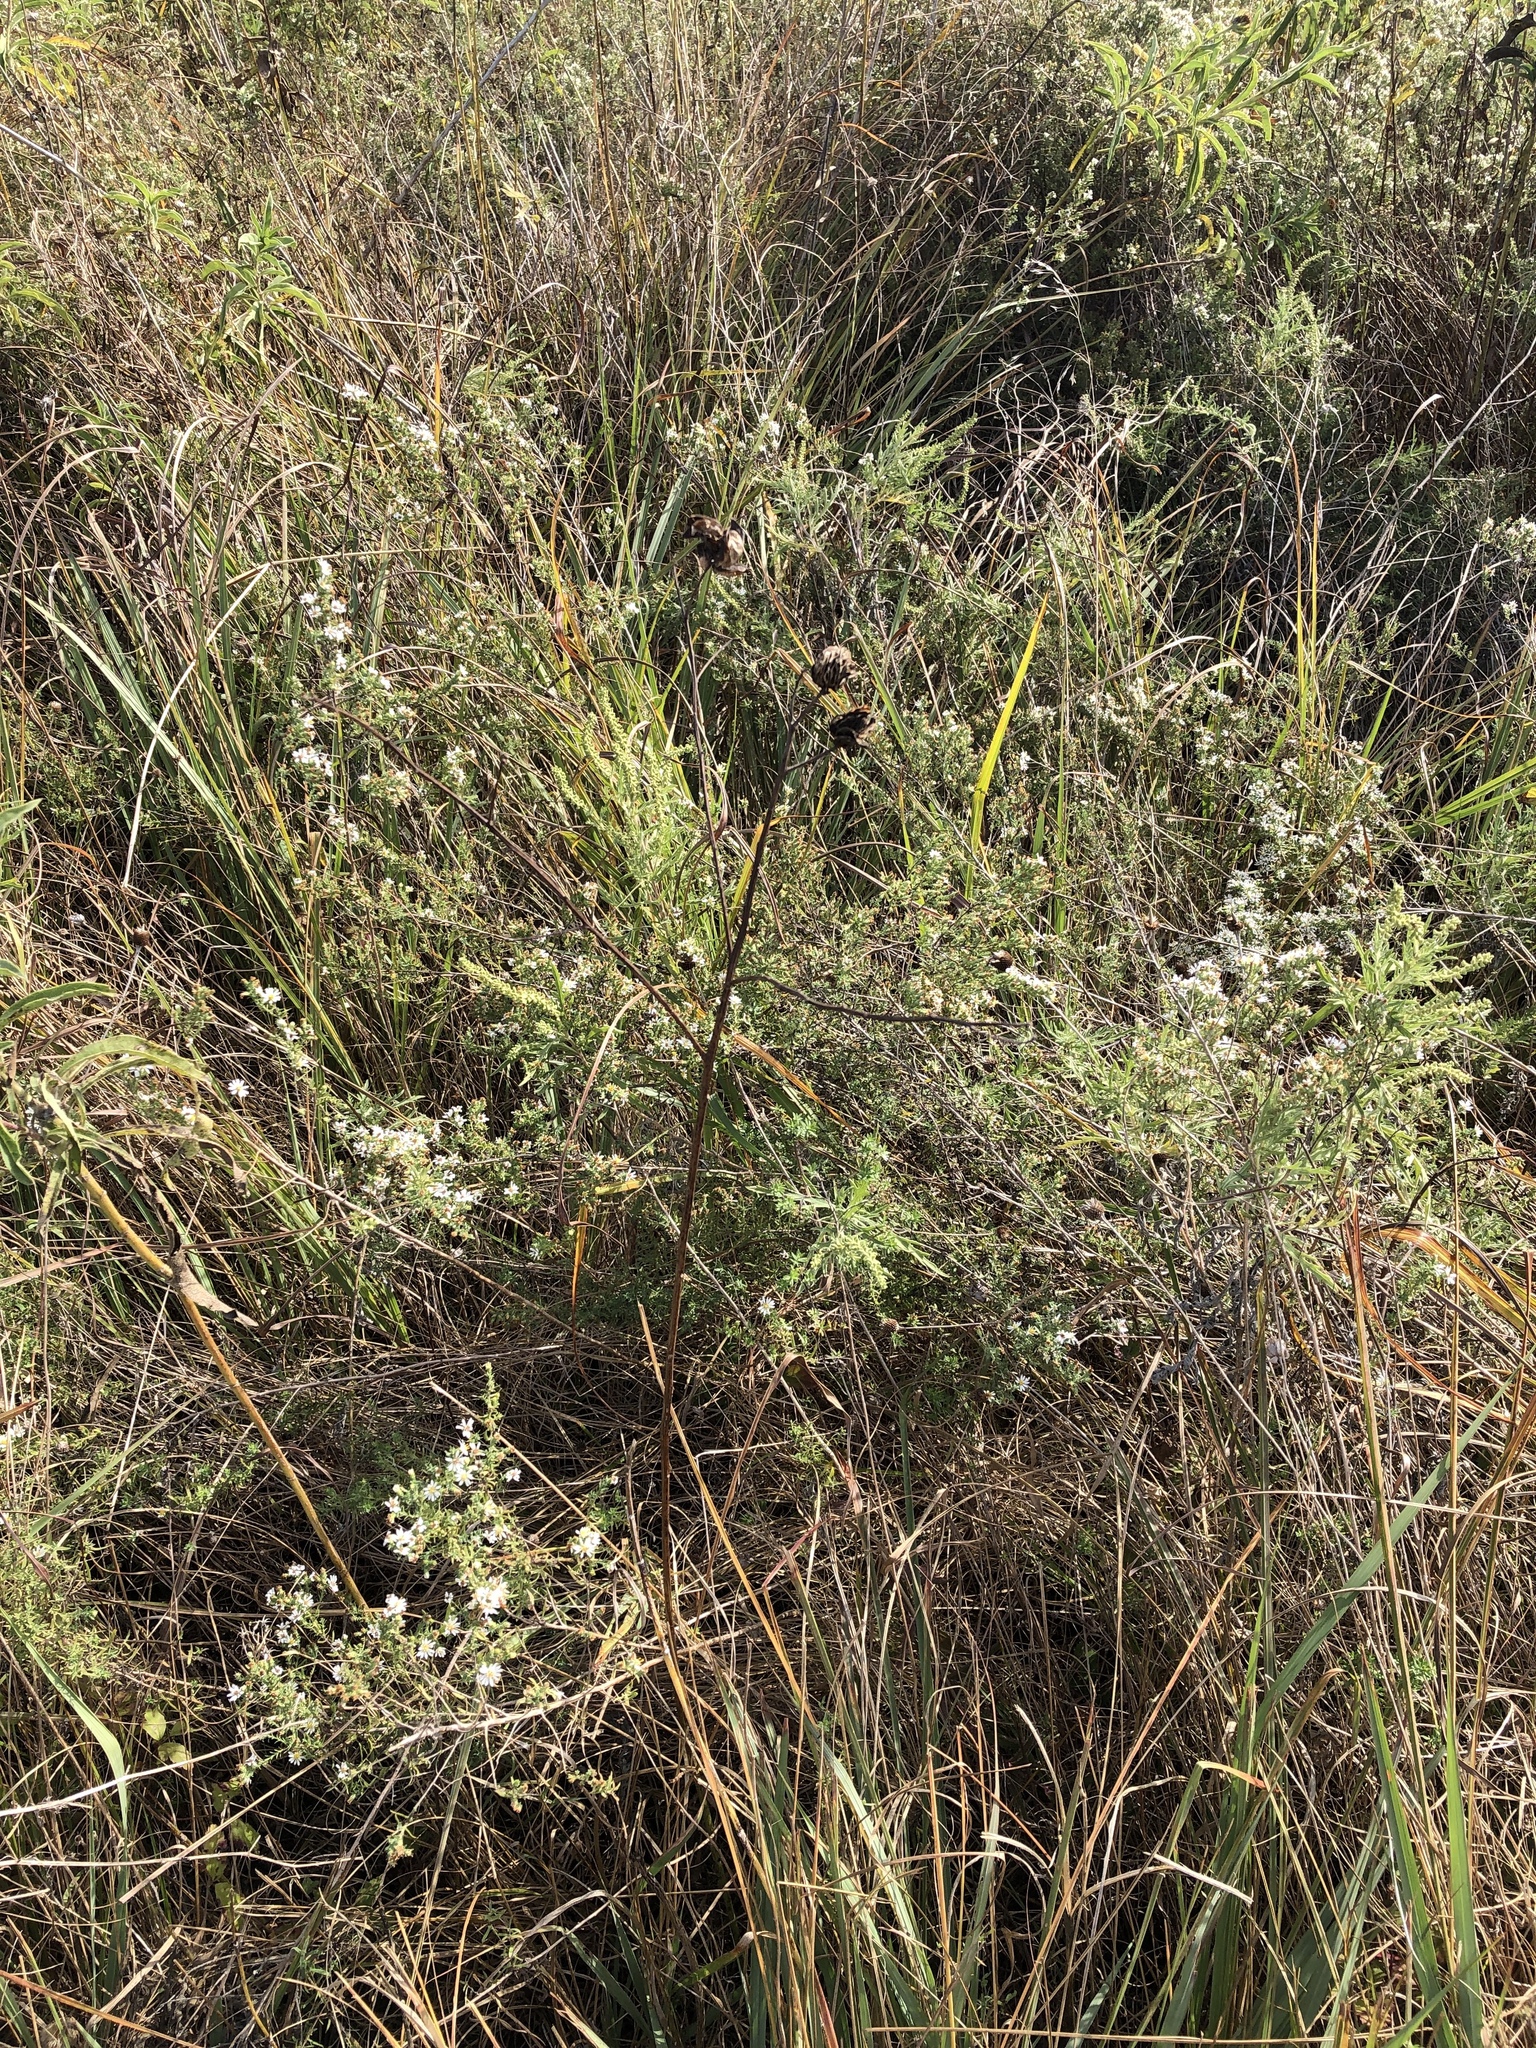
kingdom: Plantae
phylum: Tracheophyta
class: Magnoliopsida
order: Fabales
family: Fabaceae
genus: Desmanthus
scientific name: Desmanthus illinoensis
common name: Illinois bundle-flower
